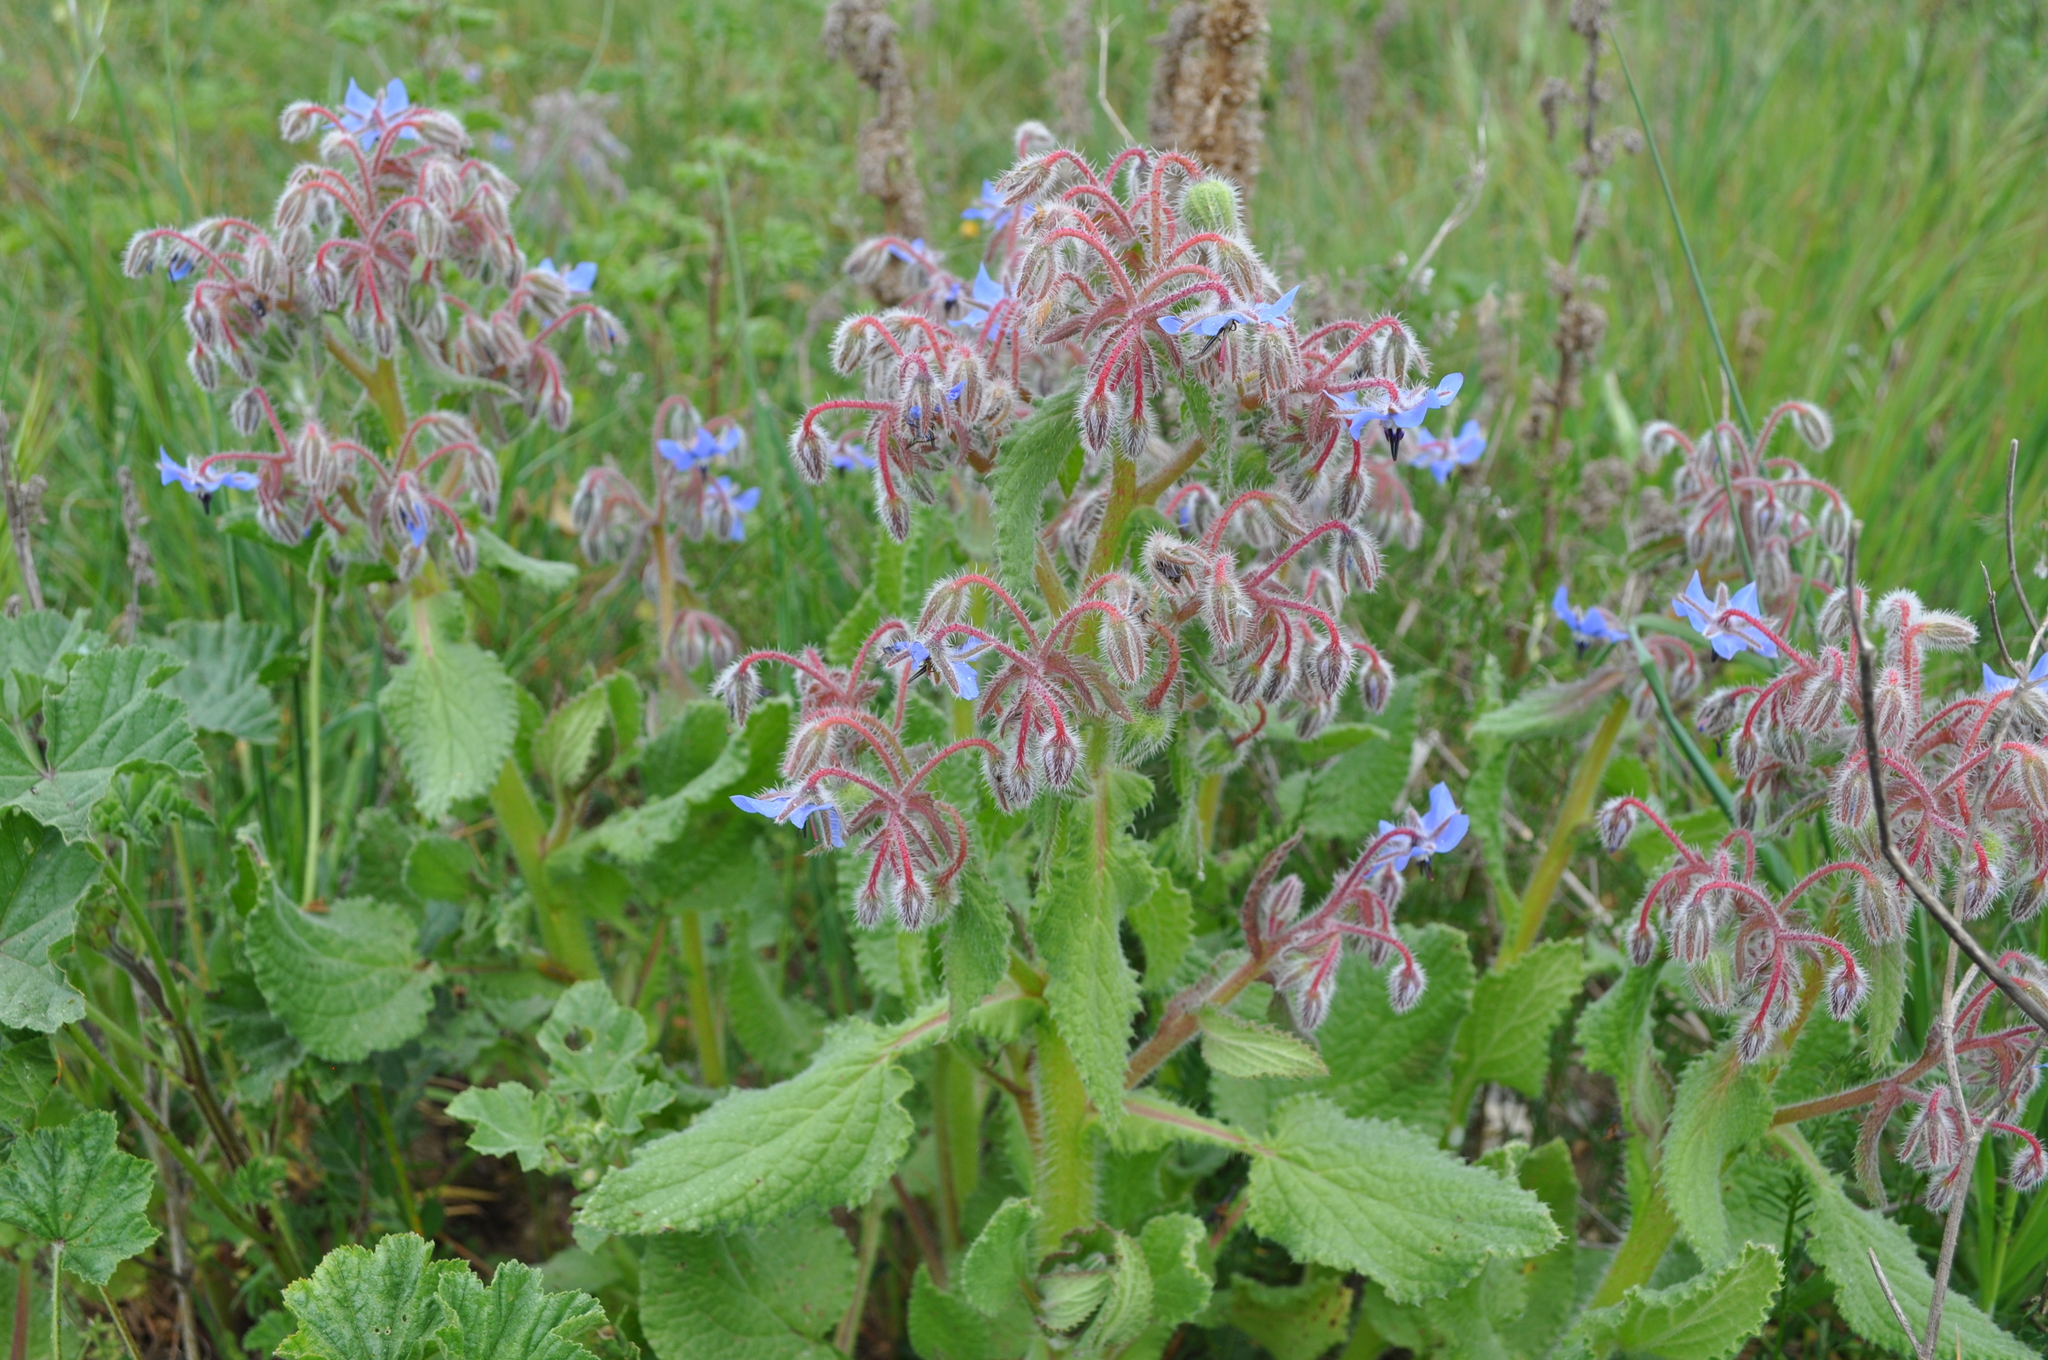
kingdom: Plantae
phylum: Tracheophyta
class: Magnoliopsida
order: Boraginales
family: Boraginaceae
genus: Borago
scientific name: Borago officinalis
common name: Borage
